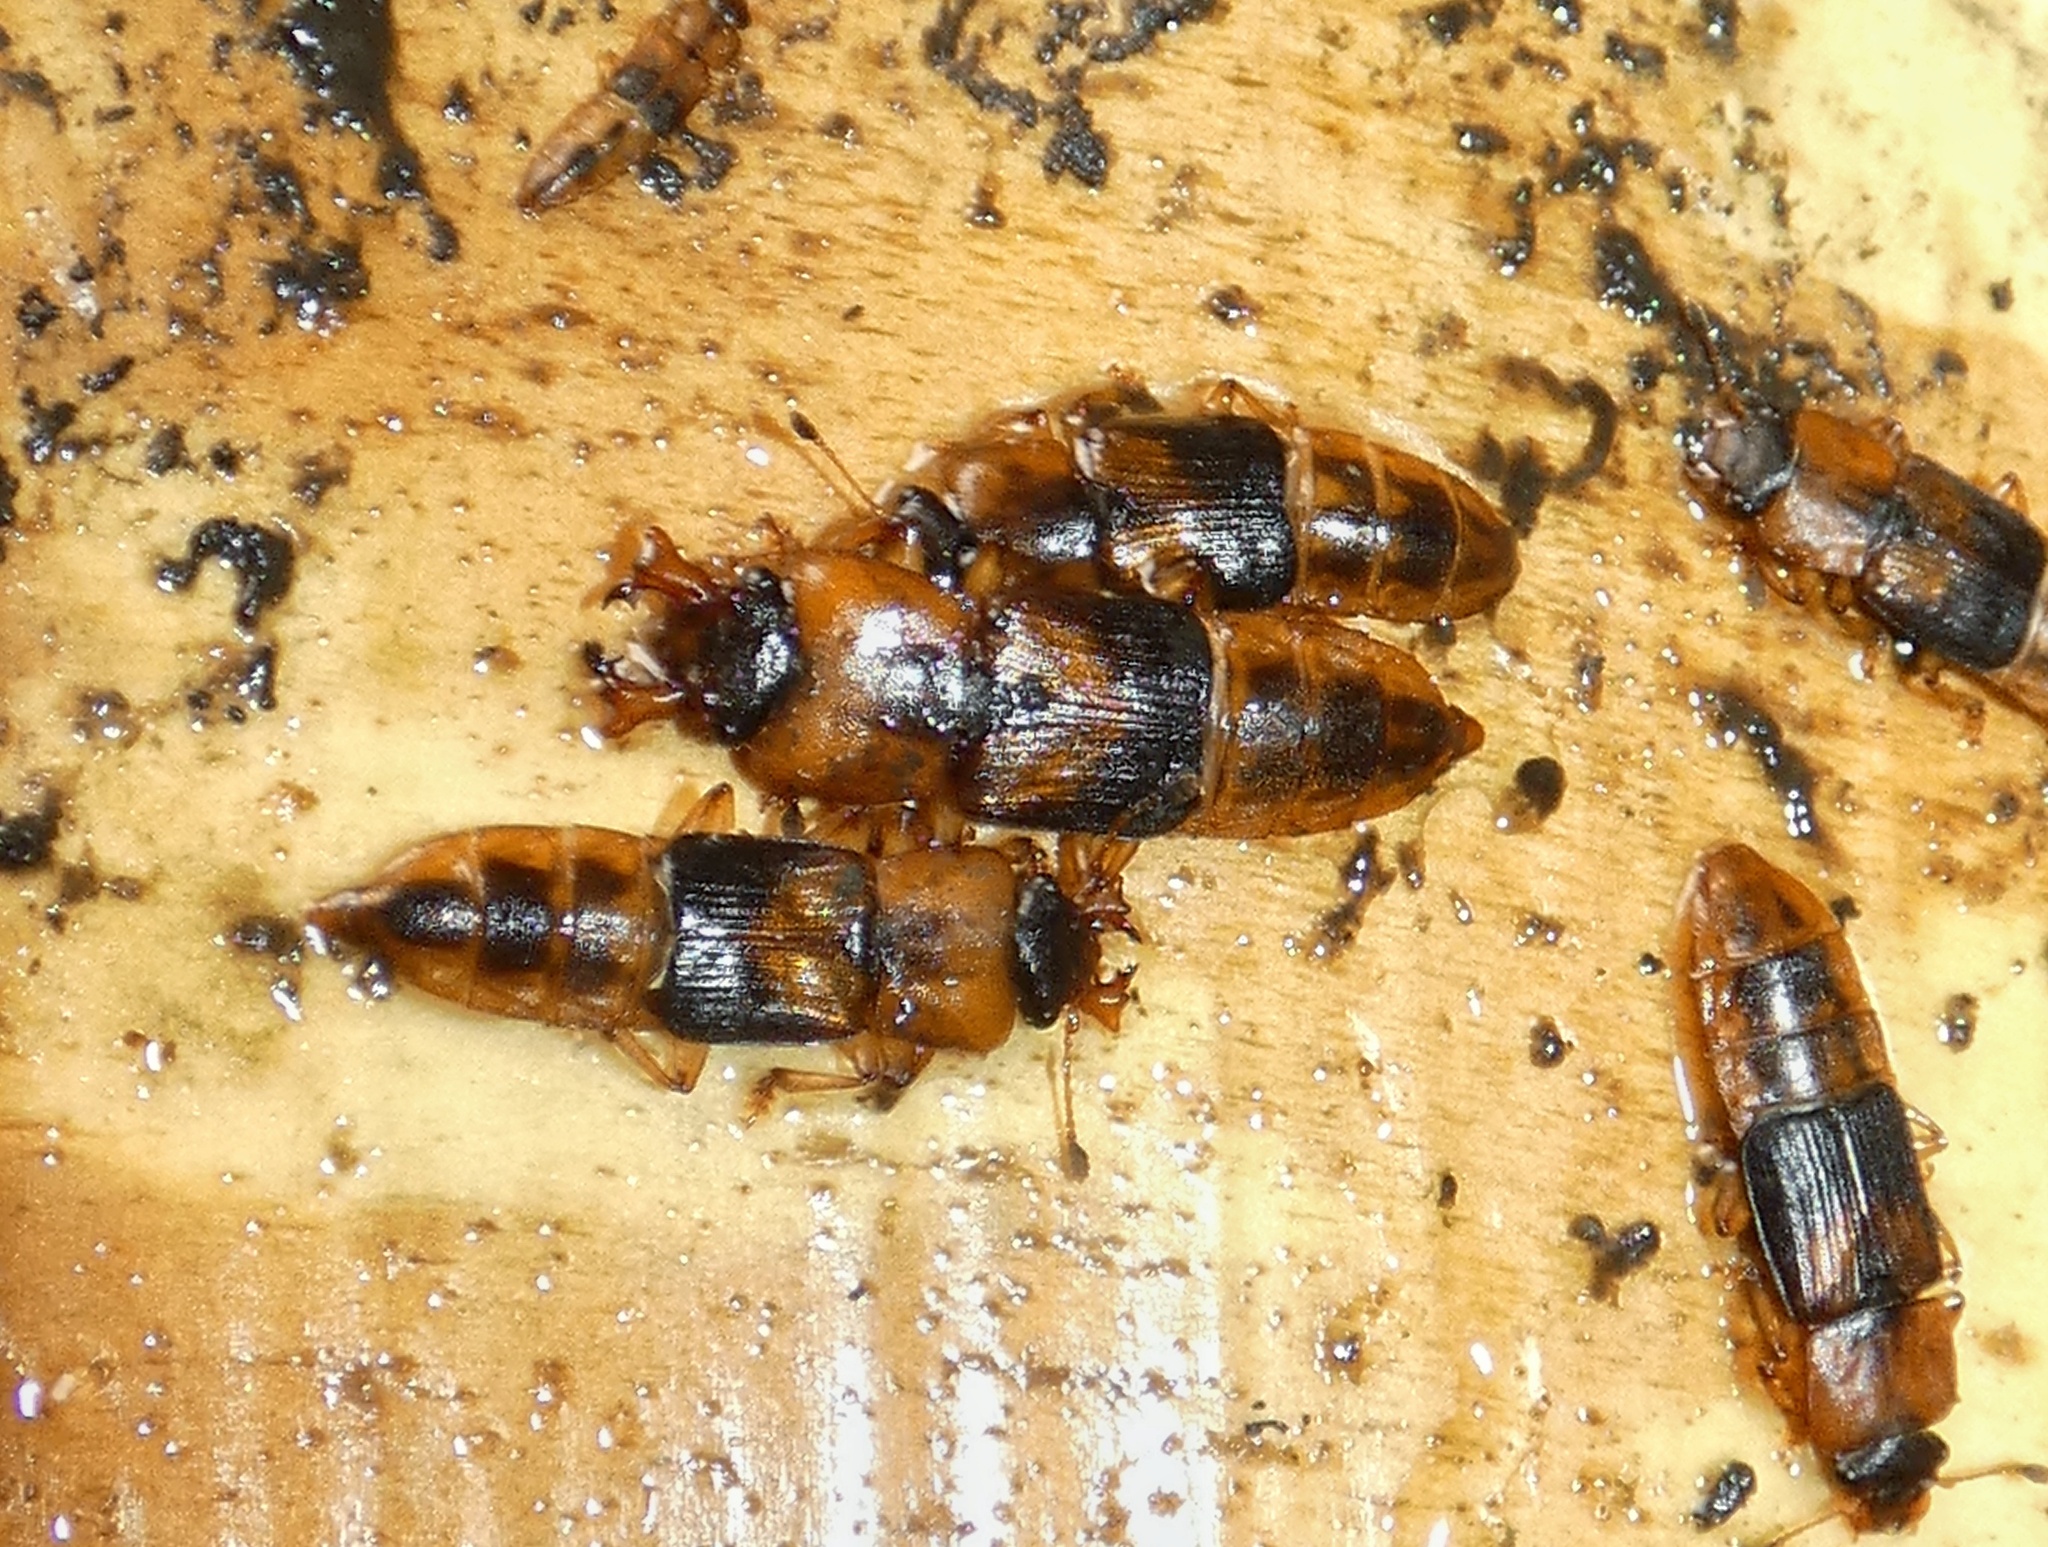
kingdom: Animalia
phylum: Arthropoda
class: Insecta
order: Coleoptera
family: Nitidulidae
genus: Brittonoma
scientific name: Brittonoma mandibulare
